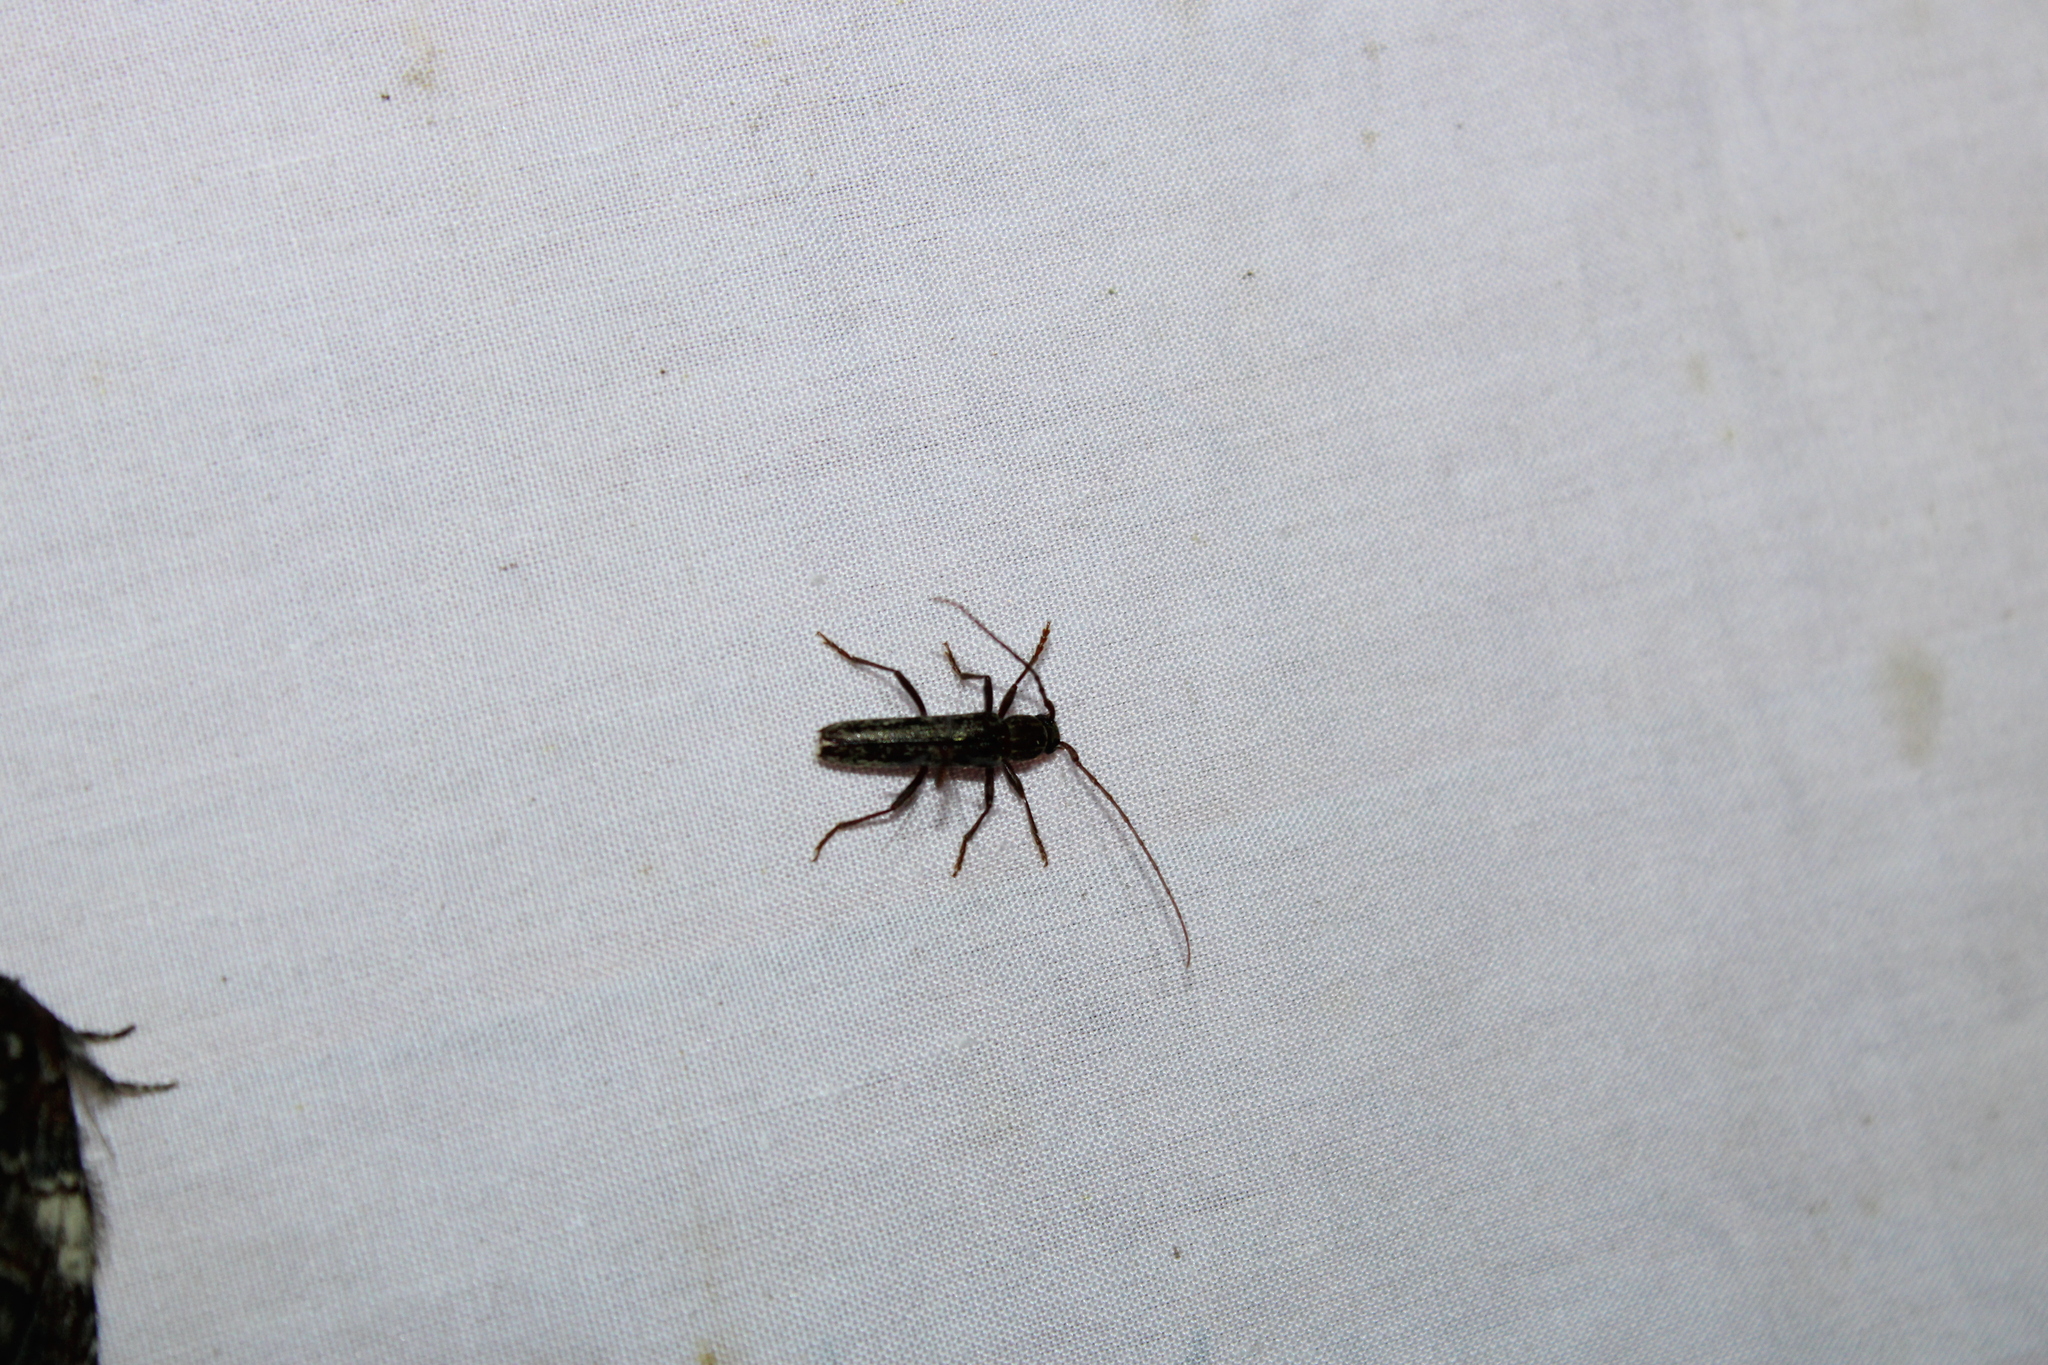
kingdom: Animalia
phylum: Arthropoda
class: Insecta
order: Coleoptera
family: Cerambycidae
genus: Anelaphus
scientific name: Anelaphus villosus
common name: Twig pruner
